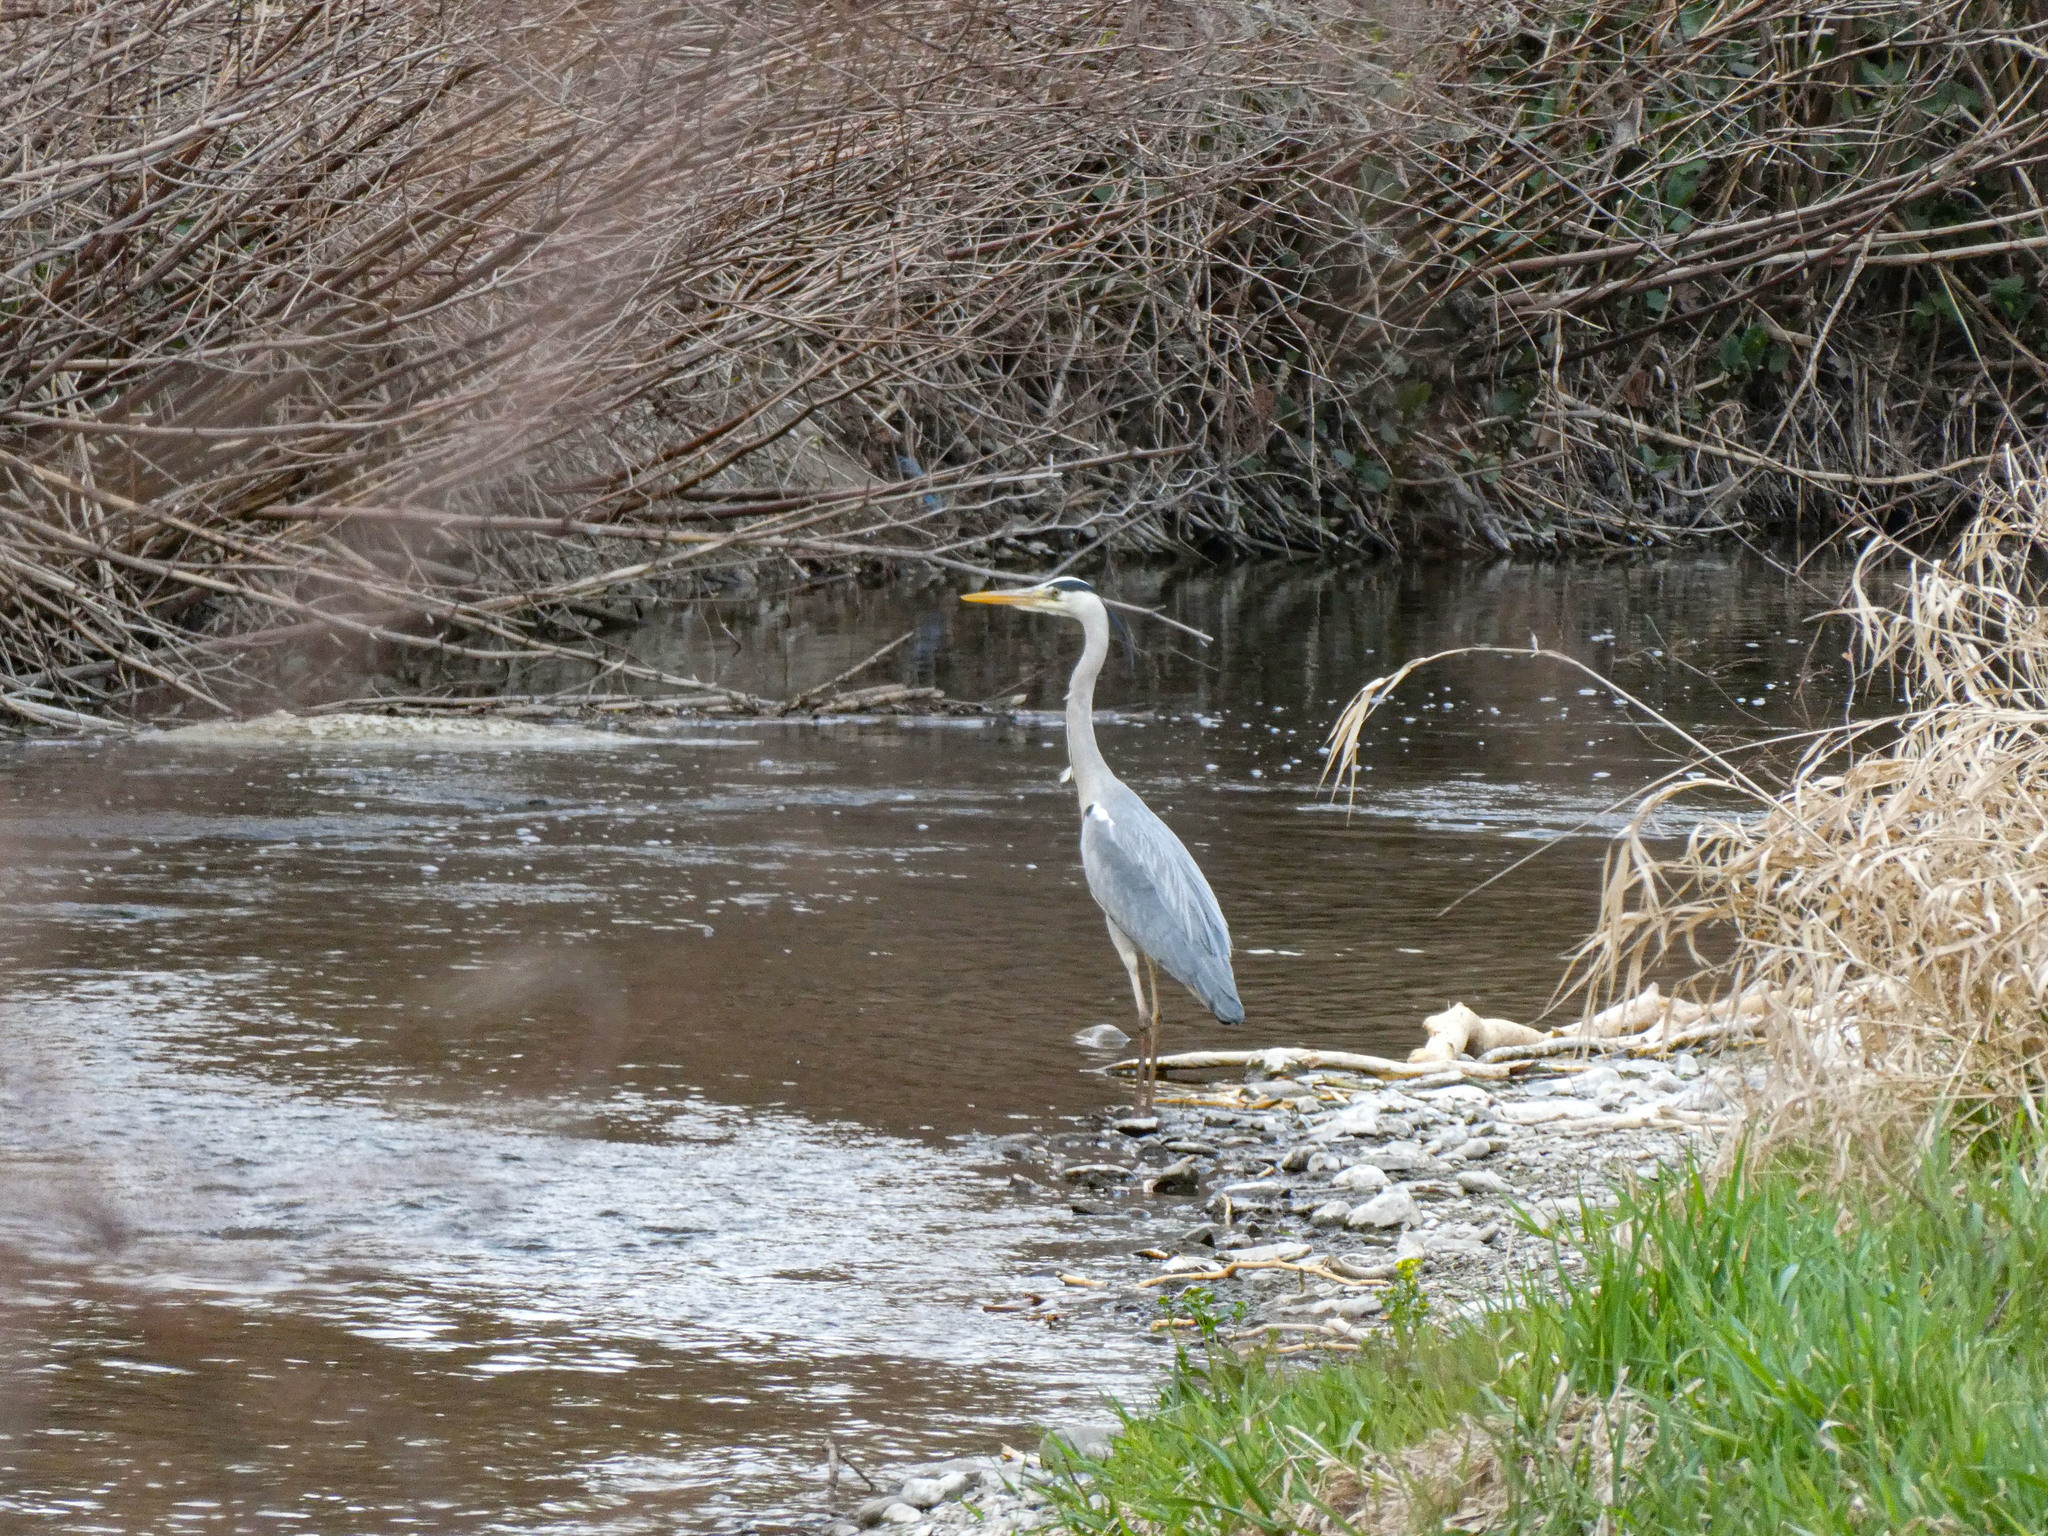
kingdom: Animalia
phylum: Chordata
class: Aves
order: Pelecaniformes
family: Ardeidae
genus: Ardea
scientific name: Ardea cinerea
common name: Grey heron
